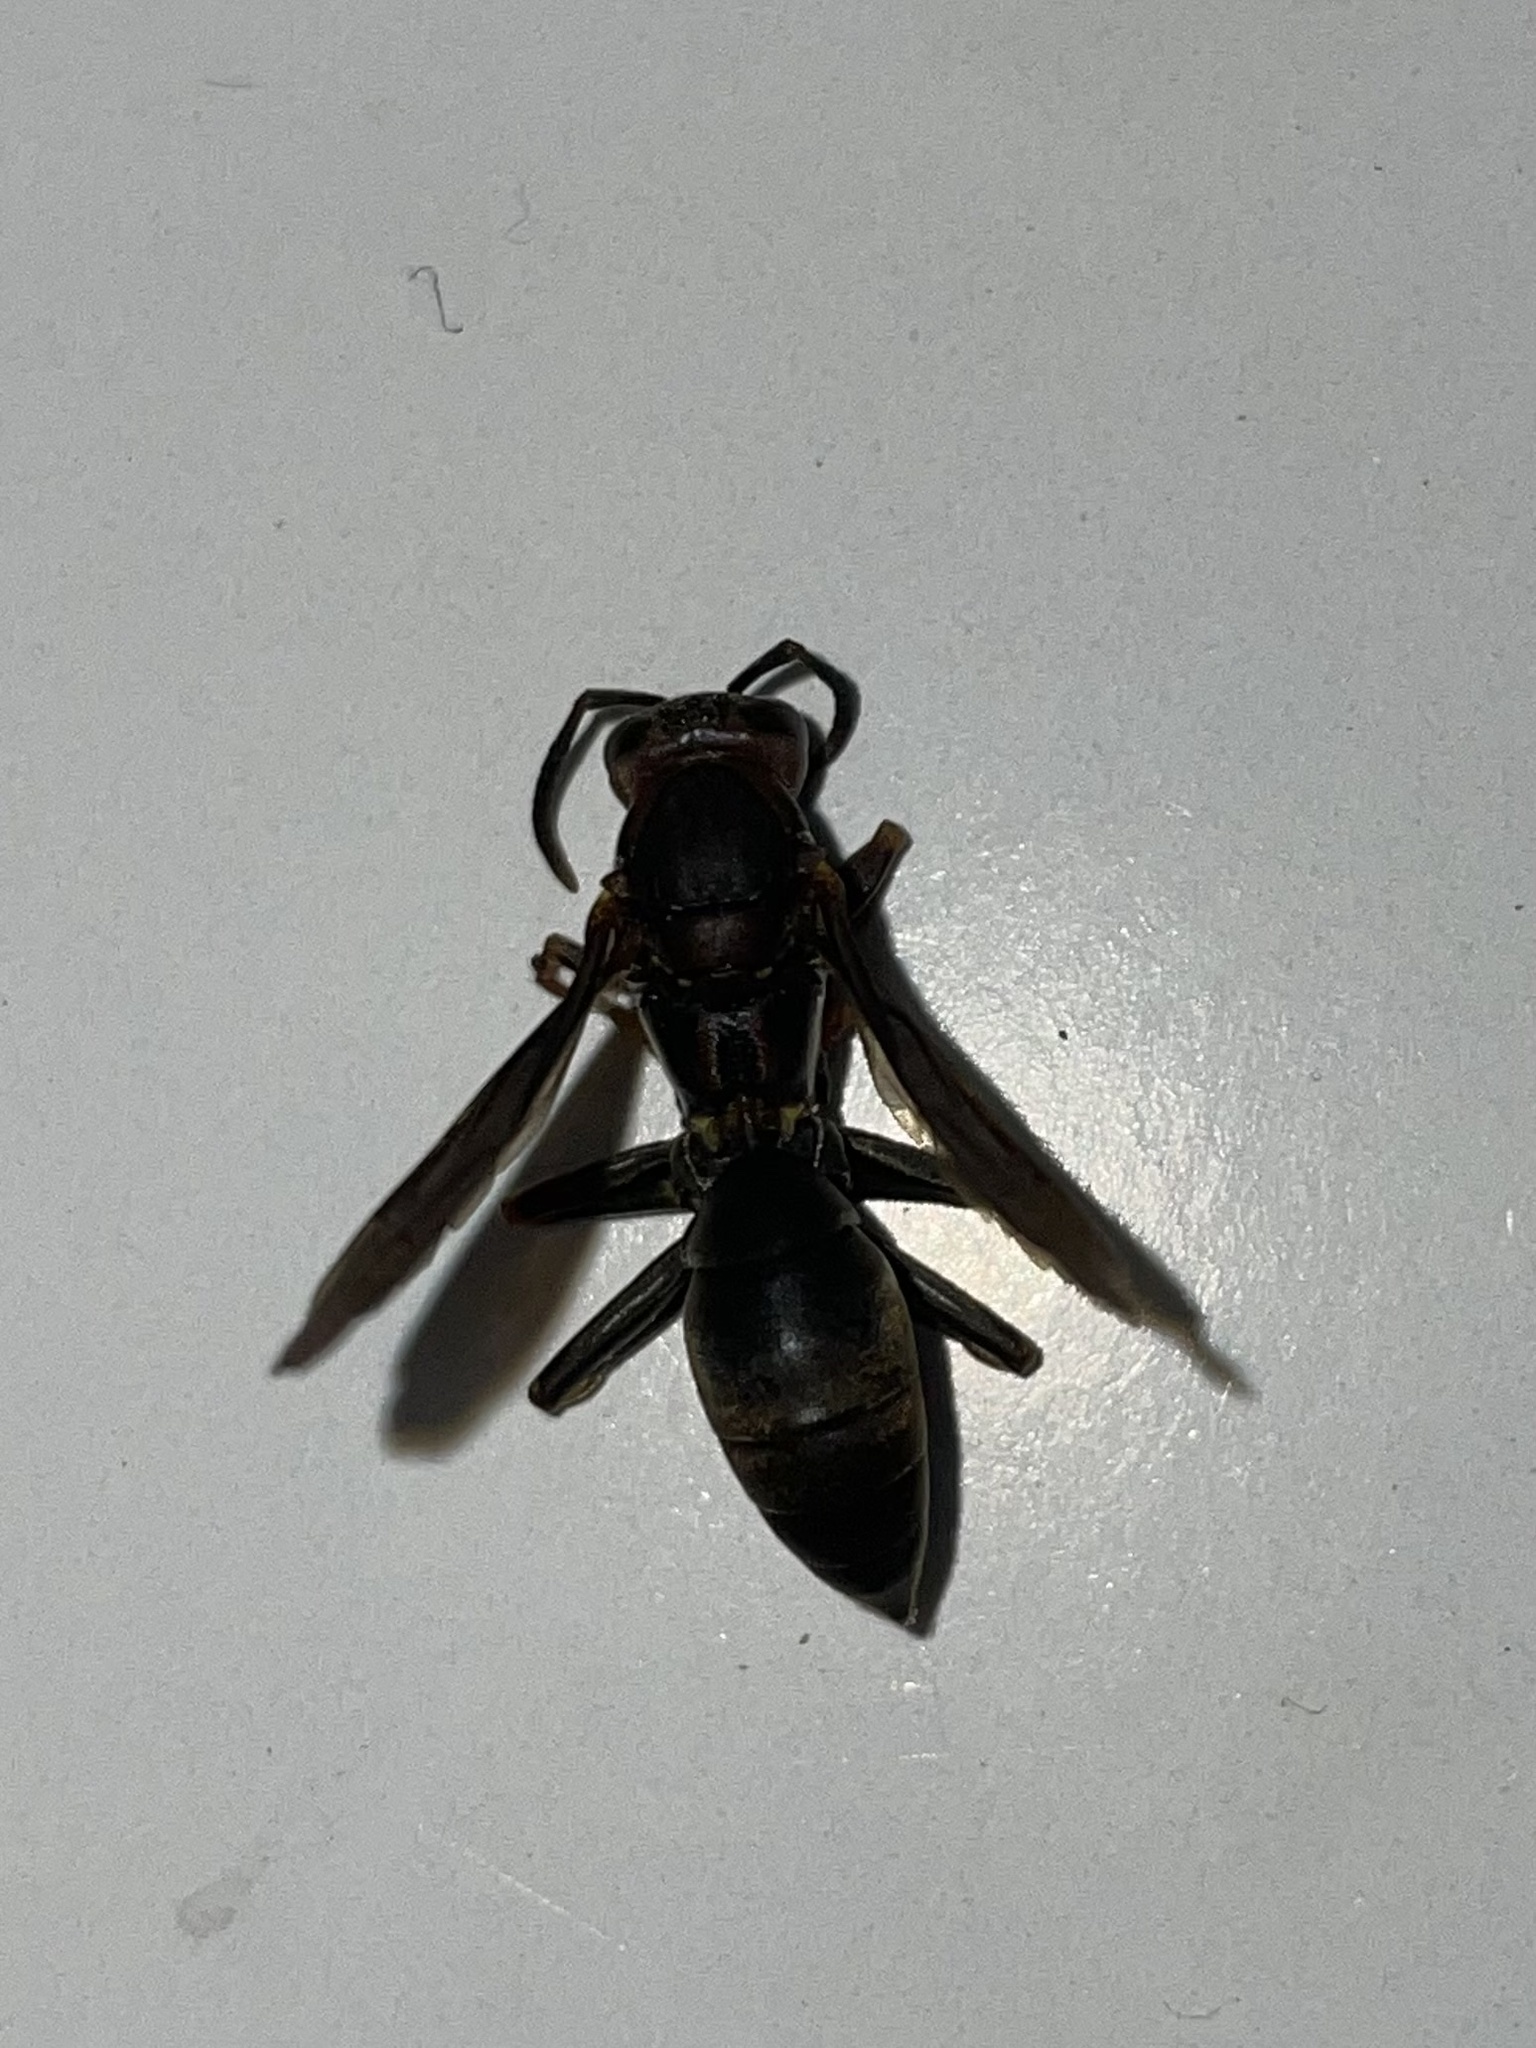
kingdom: Animalia
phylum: Arthropoda
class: Insecta
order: Hymenoptera
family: Vespidae
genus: Fuscopolistes
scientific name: Fuscopolistes
